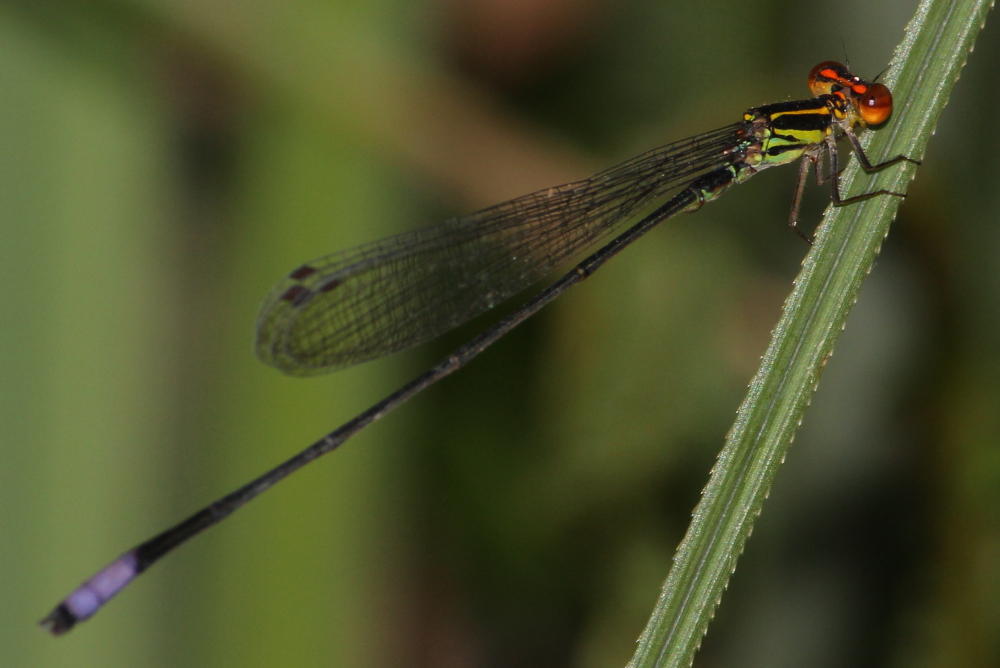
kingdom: Animalia
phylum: Arthropoda
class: Insecta
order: Odonata
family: Coenagrionidae
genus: Pseudagrion
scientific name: Pseudagrion hageni
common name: Painted sprite
